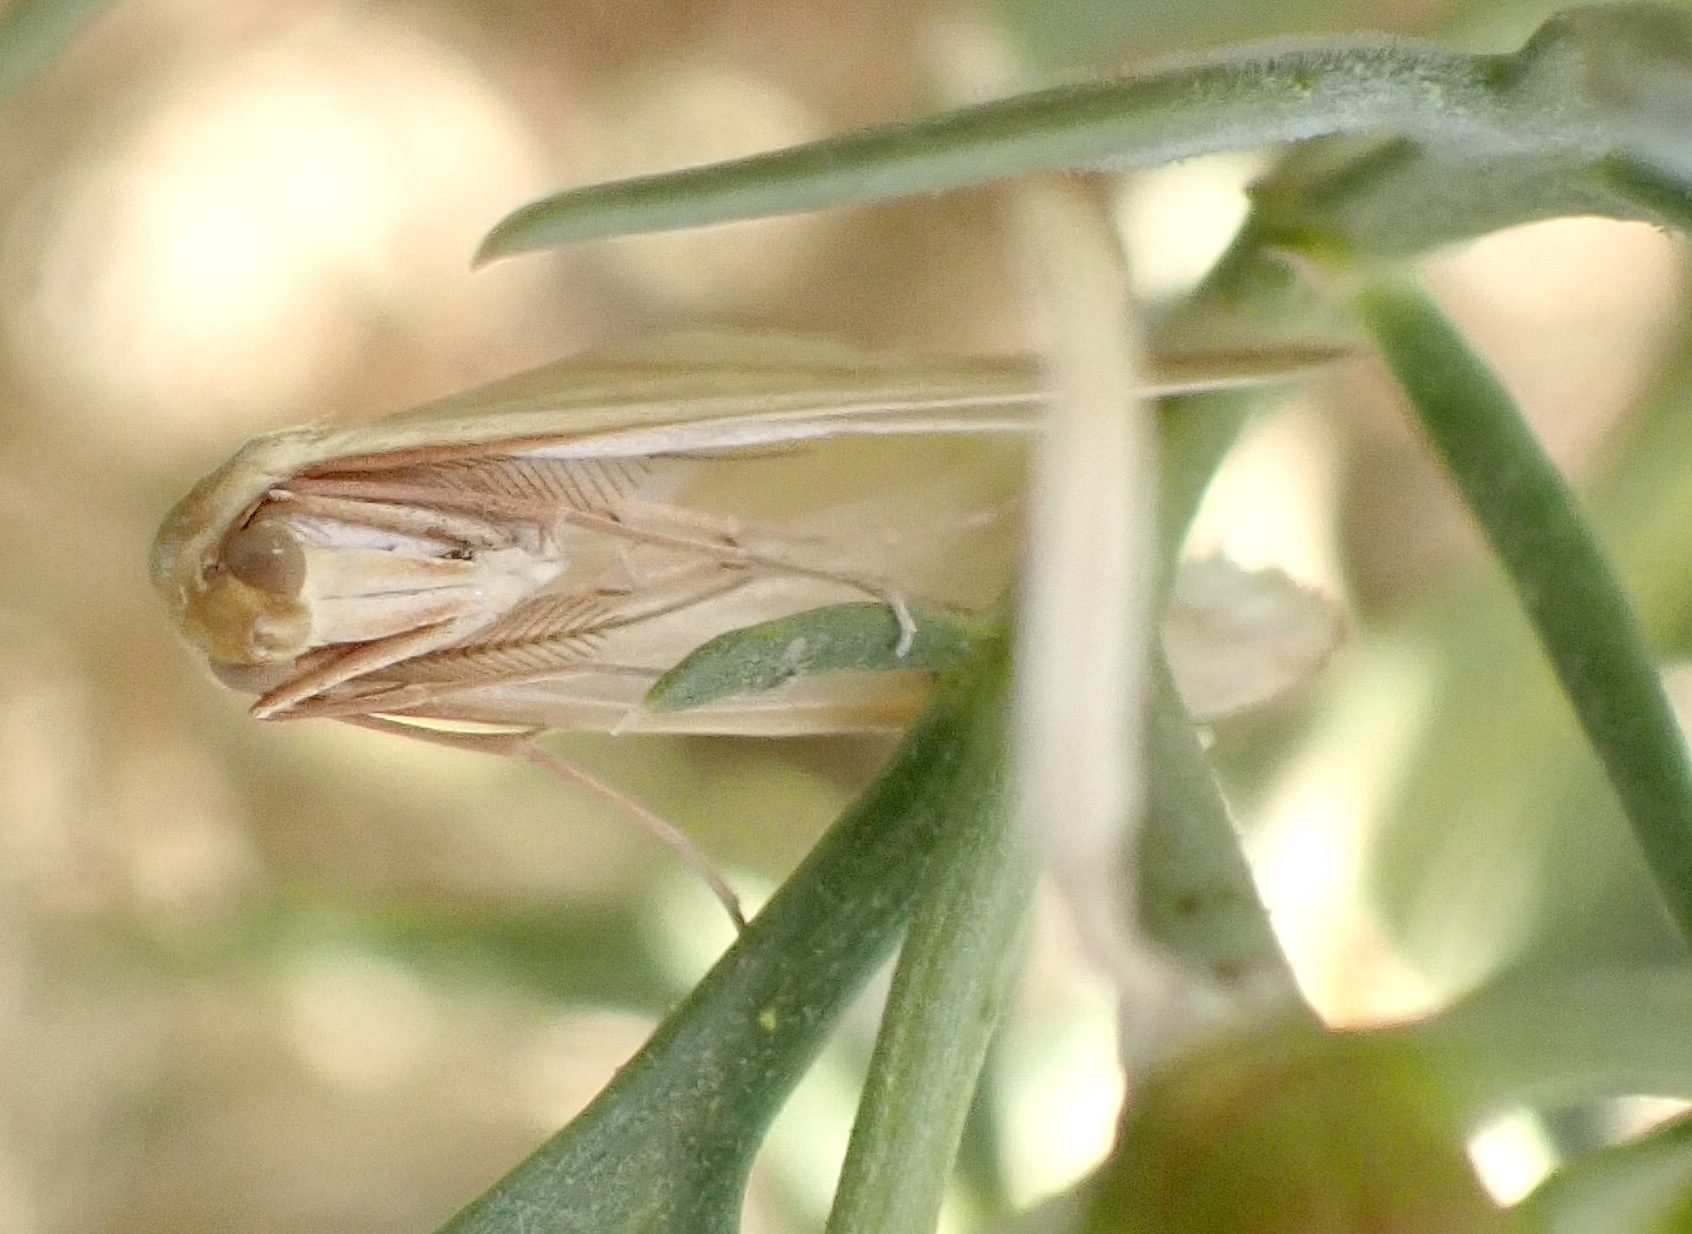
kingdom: Animalia
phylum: Arthropoda
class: Insecta
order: Lepidoptera
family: Geometridae
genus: Rhodometra
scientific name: Rhodometra sacraria
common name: Vestal
